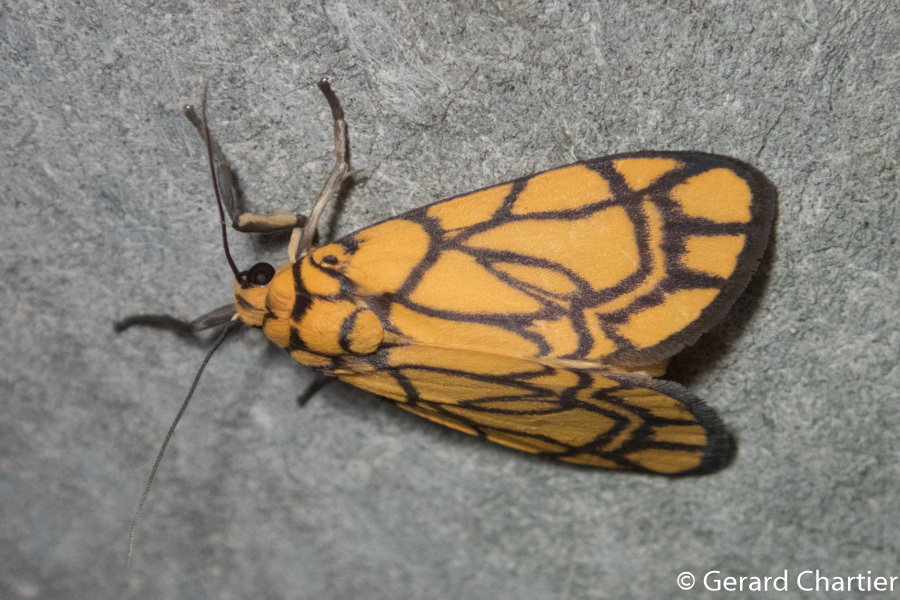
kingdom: Animalia
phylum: Arthropoda
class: Insecta
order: Lepidoptera
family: Erebidae
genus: Cyme
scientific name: Cyme euprepioides
